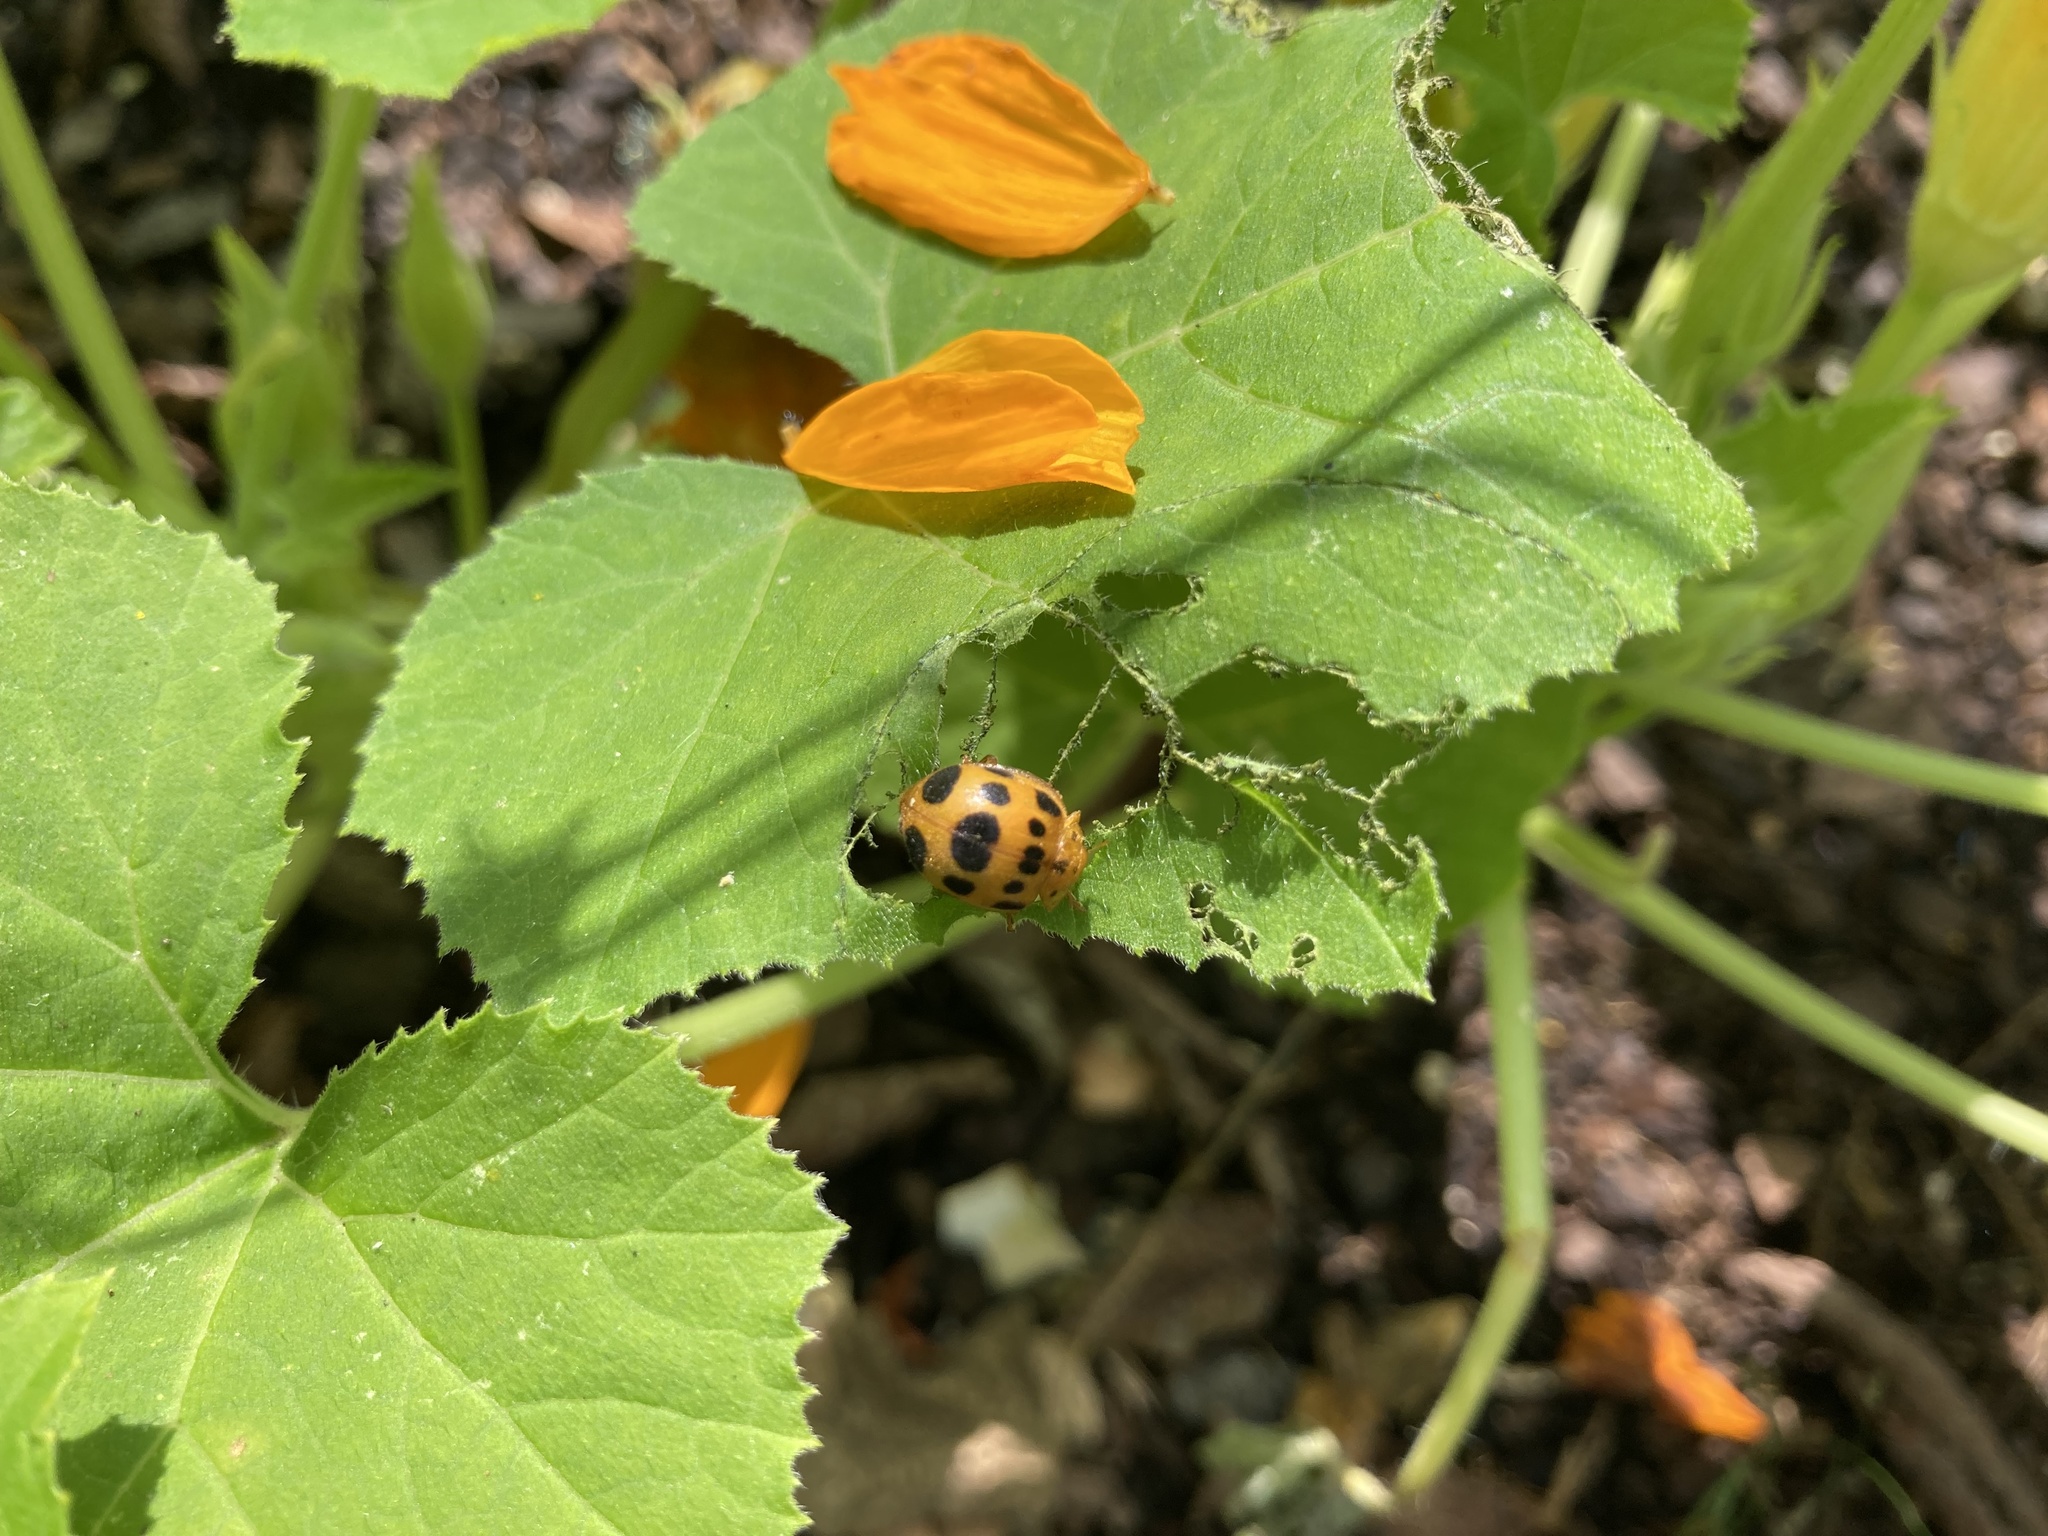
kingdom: Animalia
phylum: Arthropoda
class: Insecta
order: Coleoptera
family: Coccinellidae
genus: Epilachna
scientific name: Epilachna borealis
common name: Squash beetle
